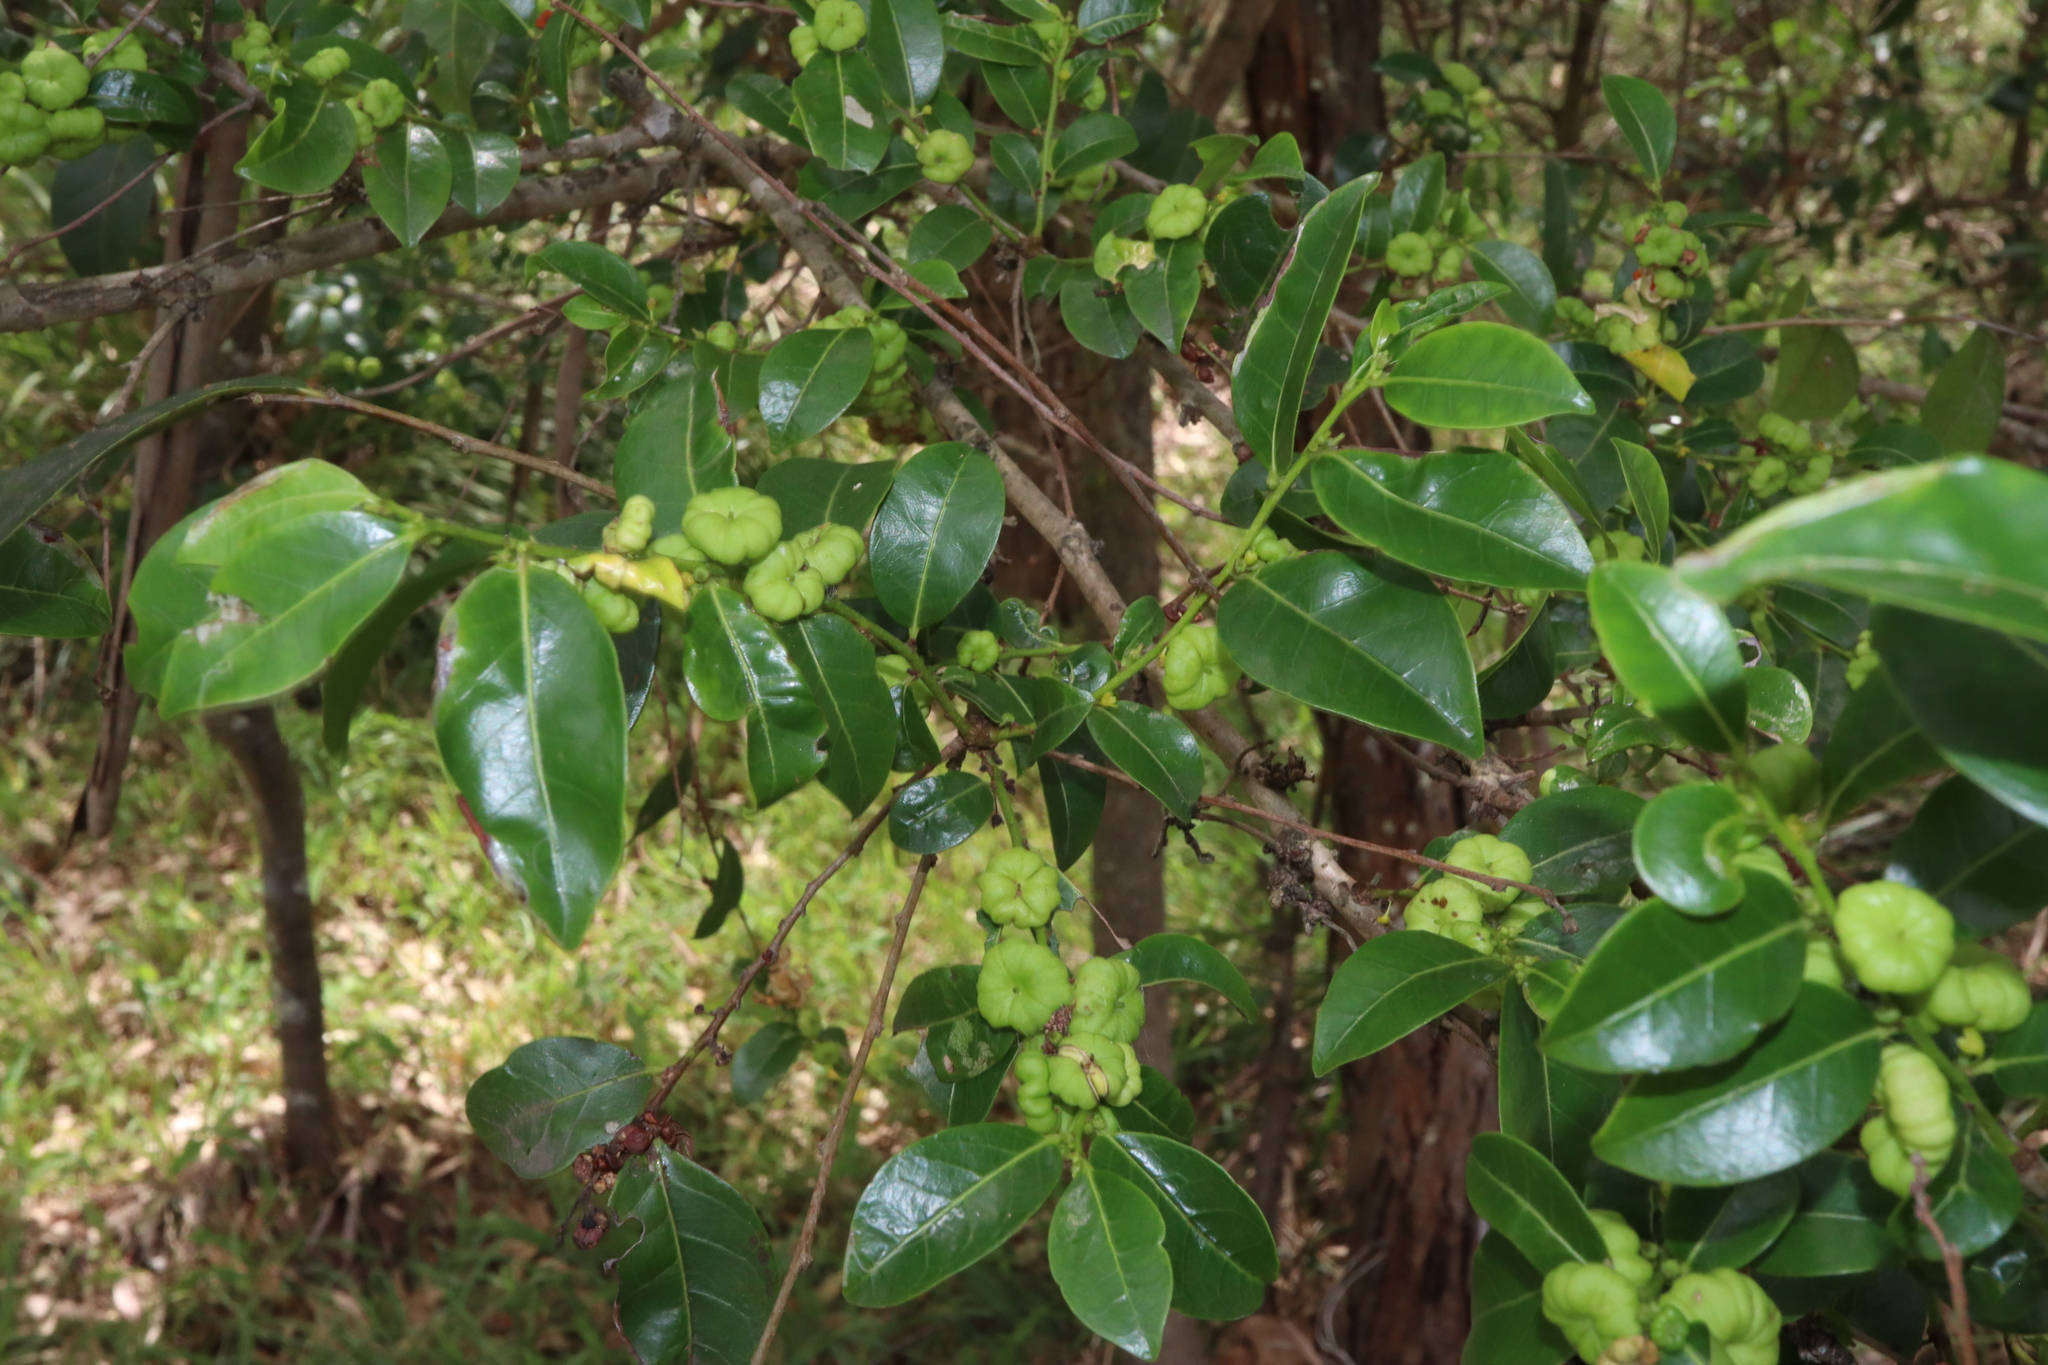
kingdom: Plantae
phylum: Tracheophyta
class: Magnoliopsida
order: Malpighiales
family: Phyllanthaceae
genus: Glochidion
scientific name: Glochidion ferdinandi
